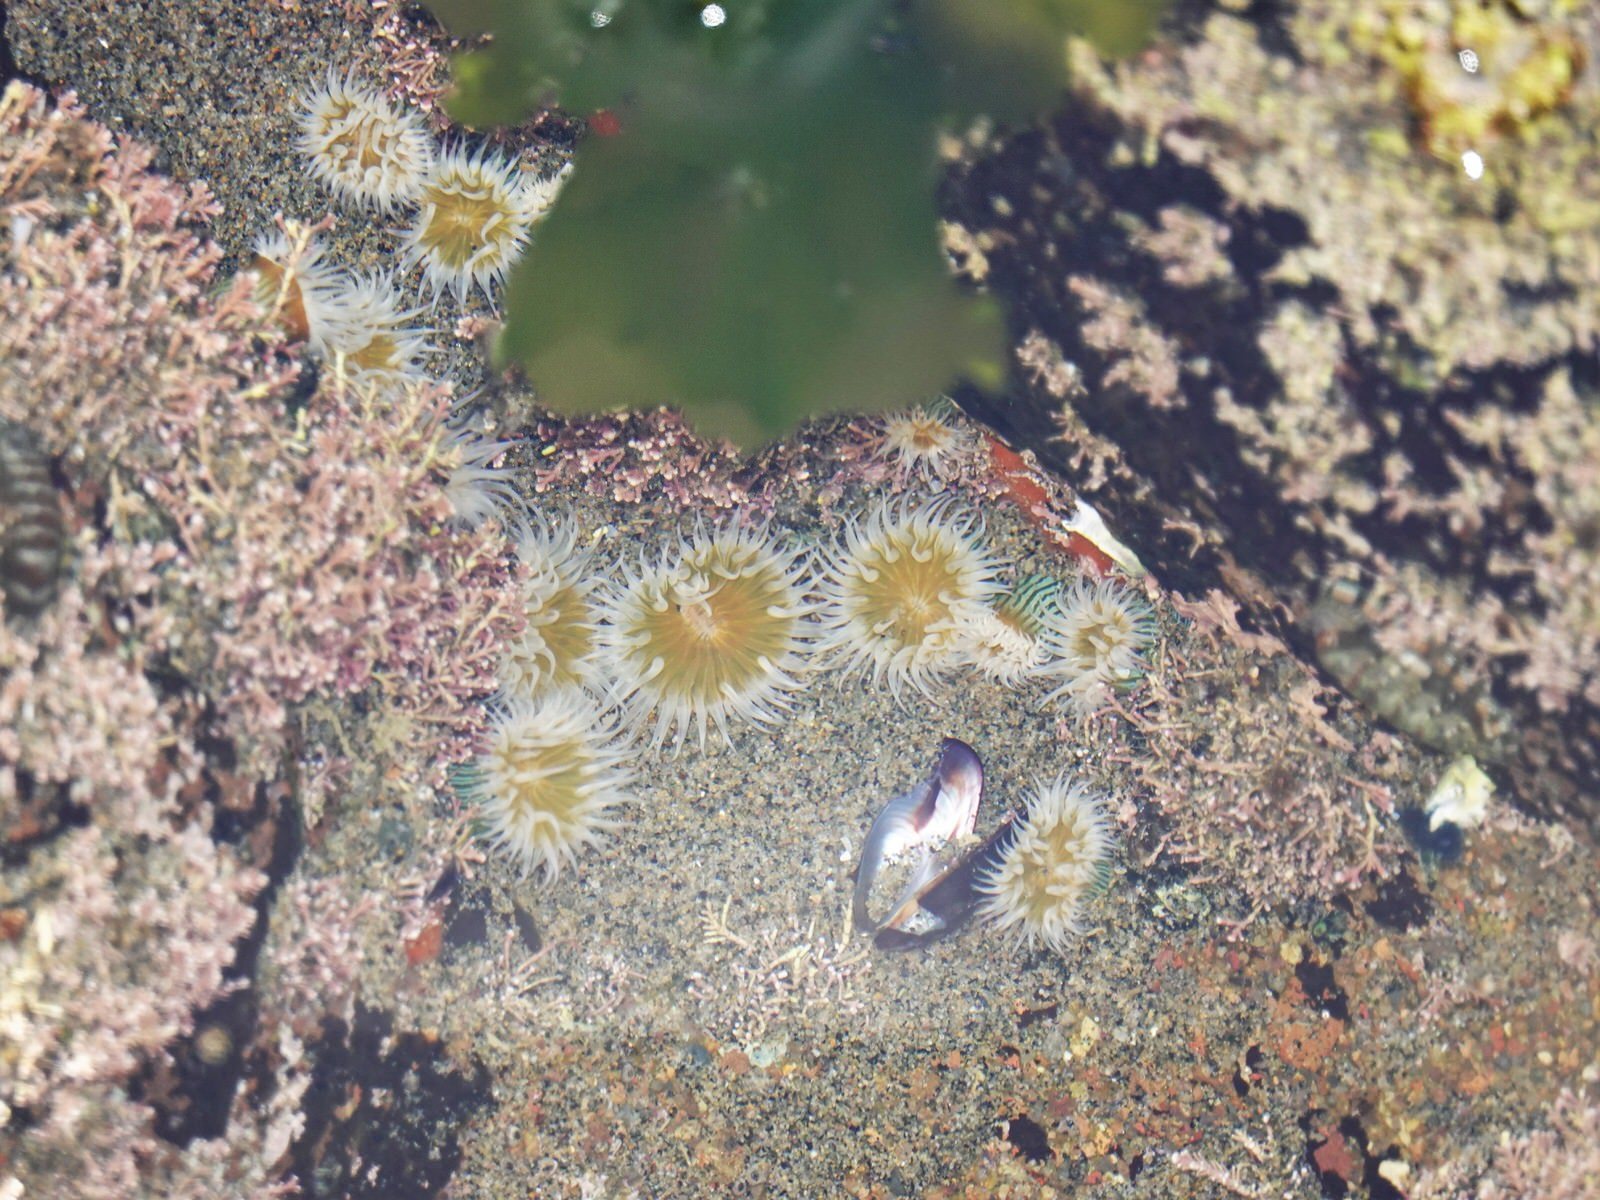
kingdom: Animalia
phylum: Cnidaria
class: Anthozoa
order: Actiniaria
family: Sagartiidae
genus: Anthothoe
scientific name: Anthothoe albocincta
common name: Orange striped anemone
